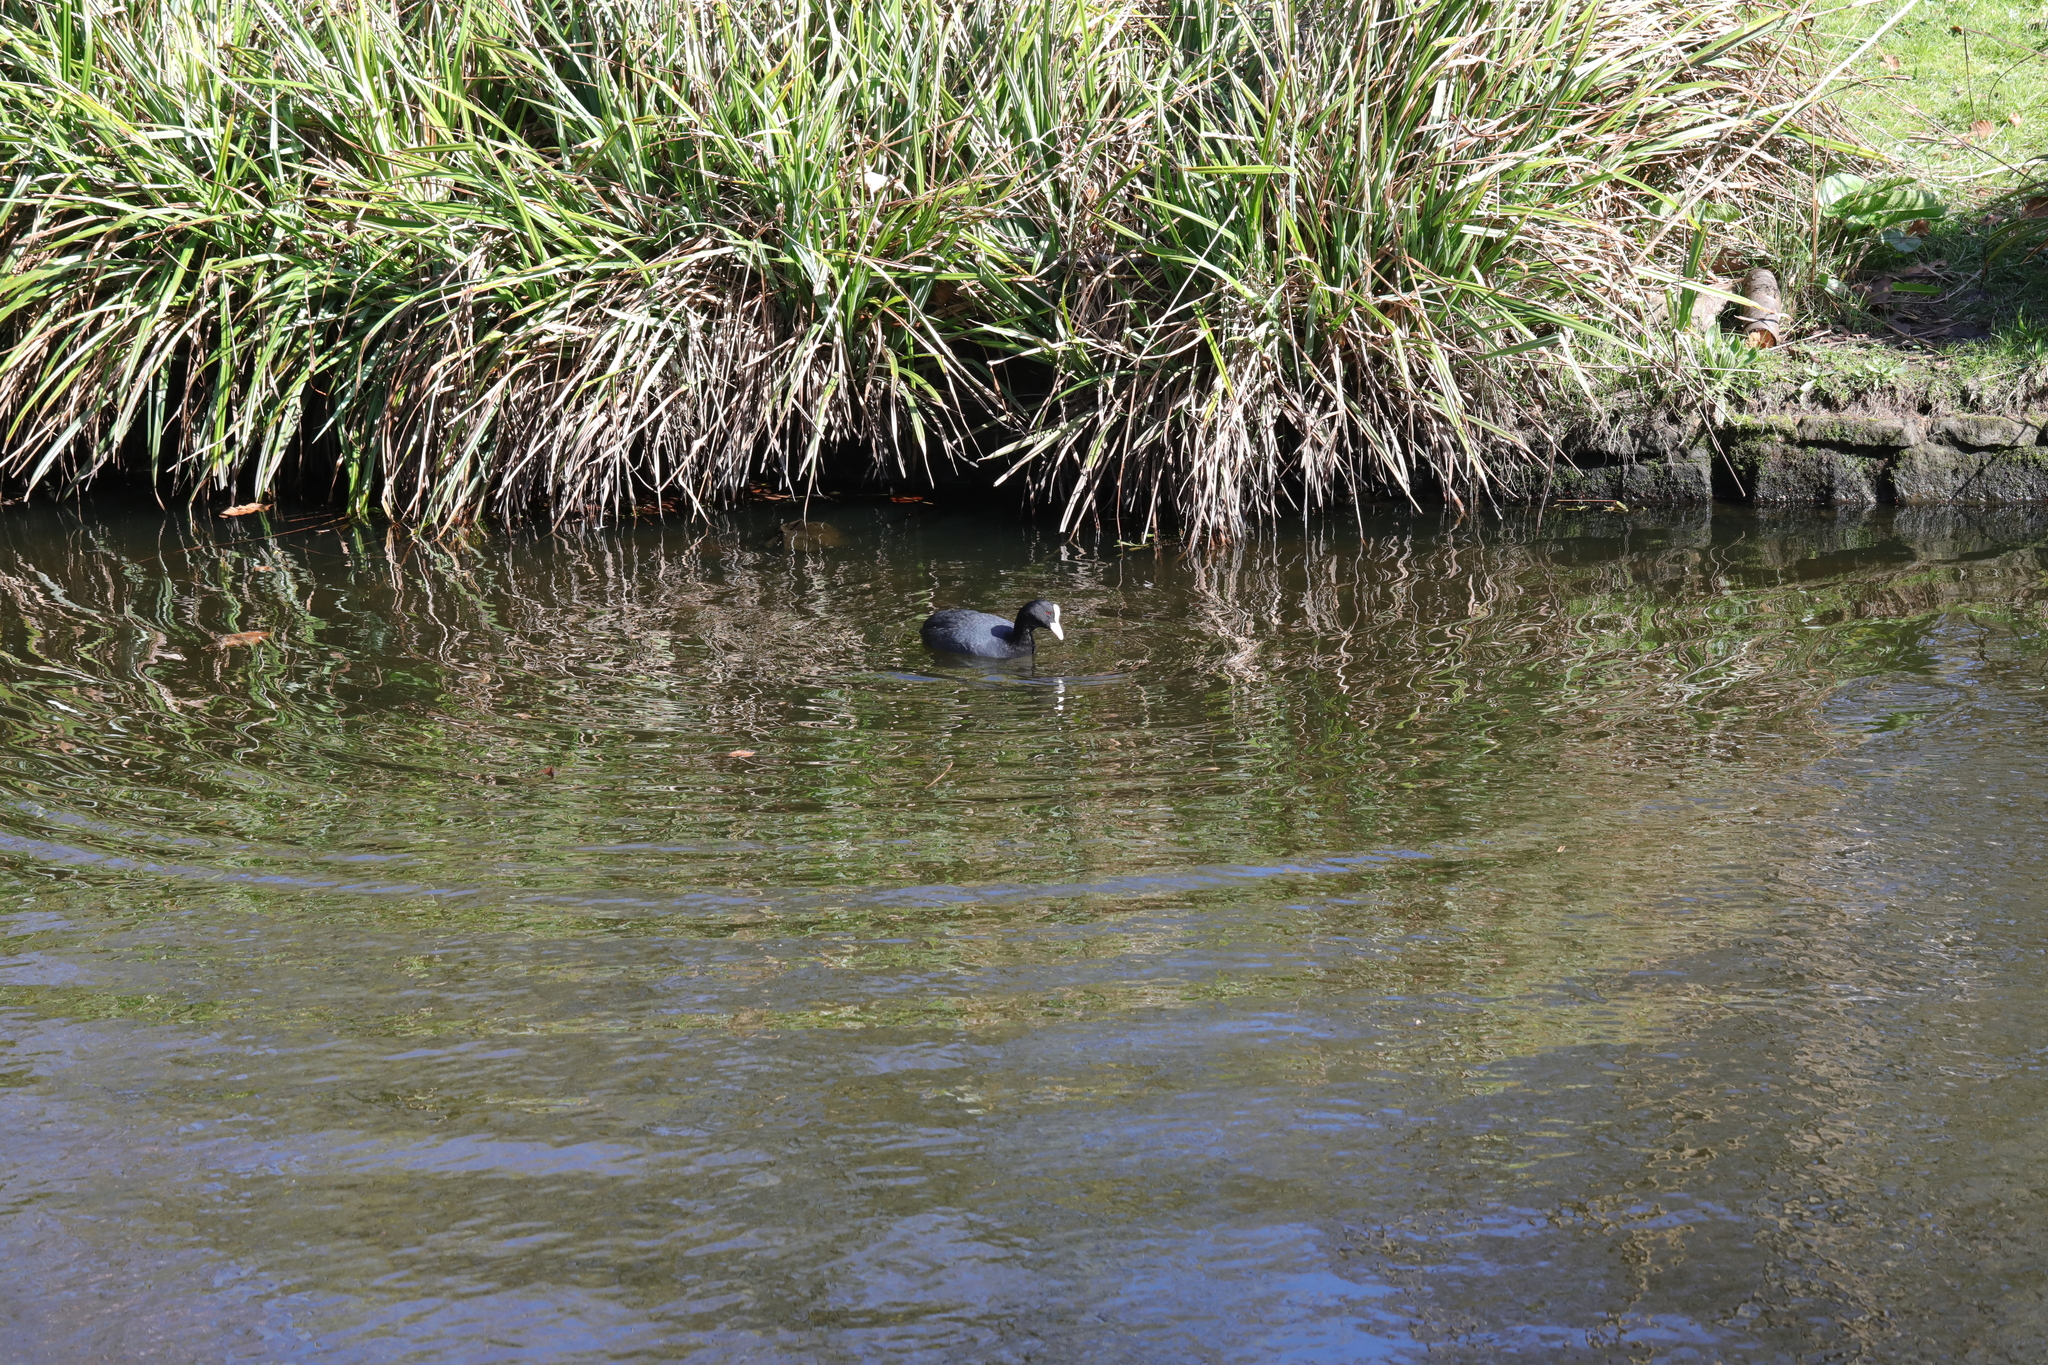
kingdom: Animalia
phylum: Chordata
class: Aves
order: Gruiformes
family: Rallidae
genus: Fulica
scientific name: Fulica atra
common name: Eurasian coot
